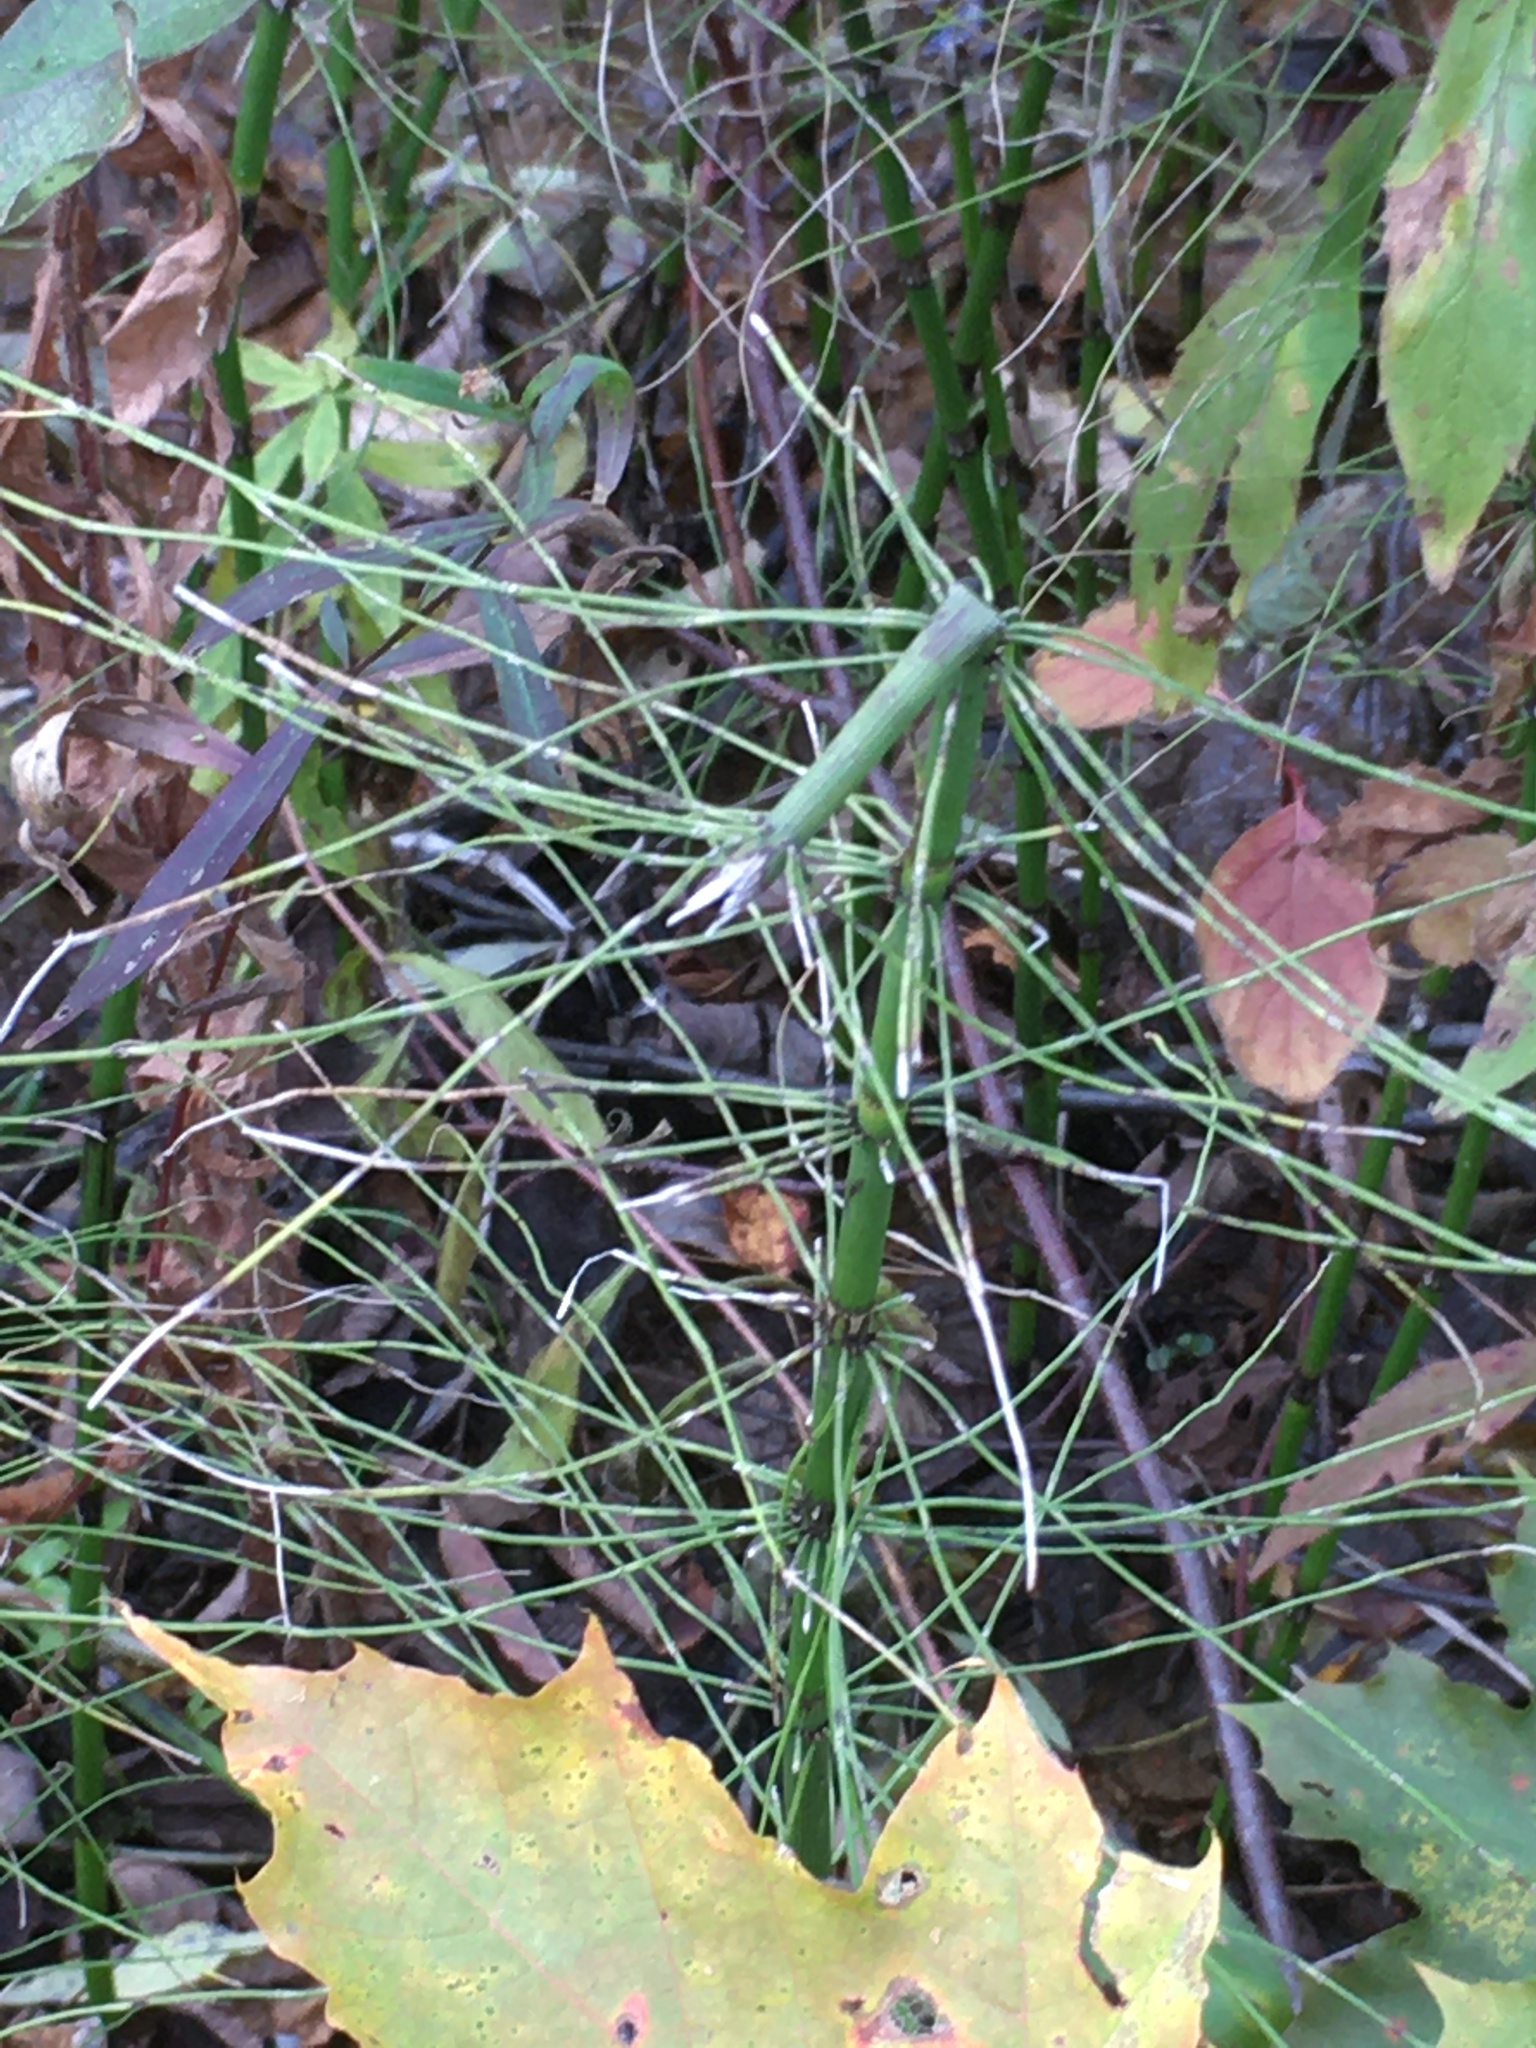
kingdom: Plantae
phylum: Tracheophyta
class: Polypodiopsida
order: Equisetales
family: Equisetaceae
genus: Equisetum
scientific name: Equisetum fluviatile
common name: Water horsetail
